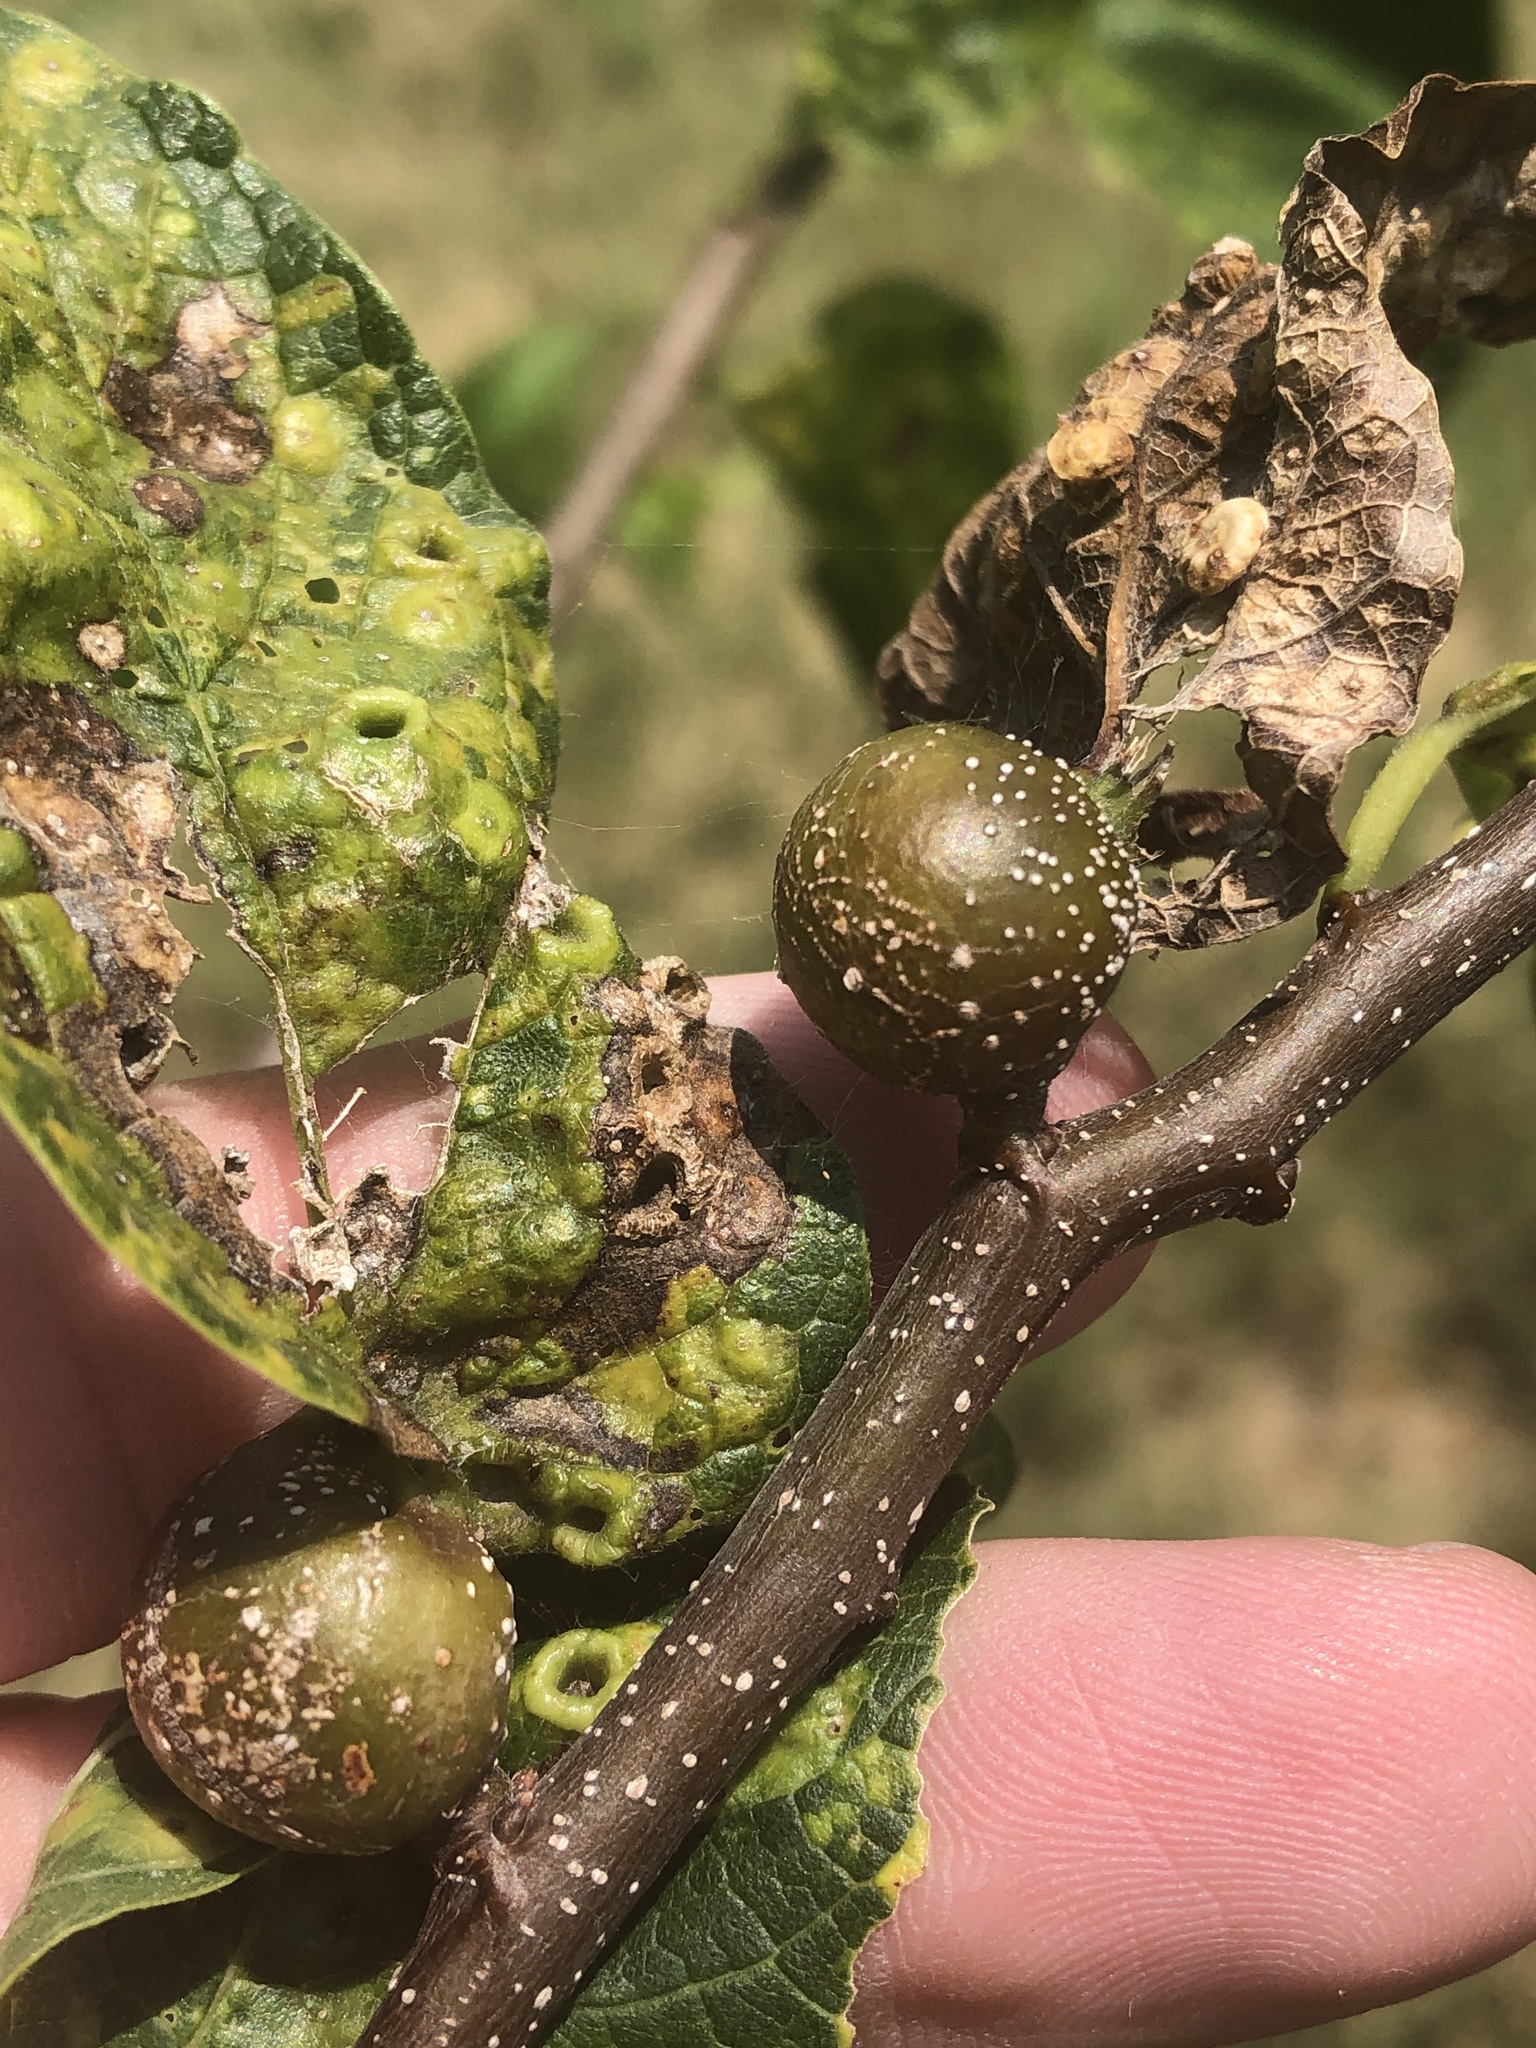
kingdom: Animalia
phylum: Arthropoda
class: Insecta
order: Hemiptera
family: Aphalaridae
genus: Pachypsylla
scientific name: Pachypsylla venusta
